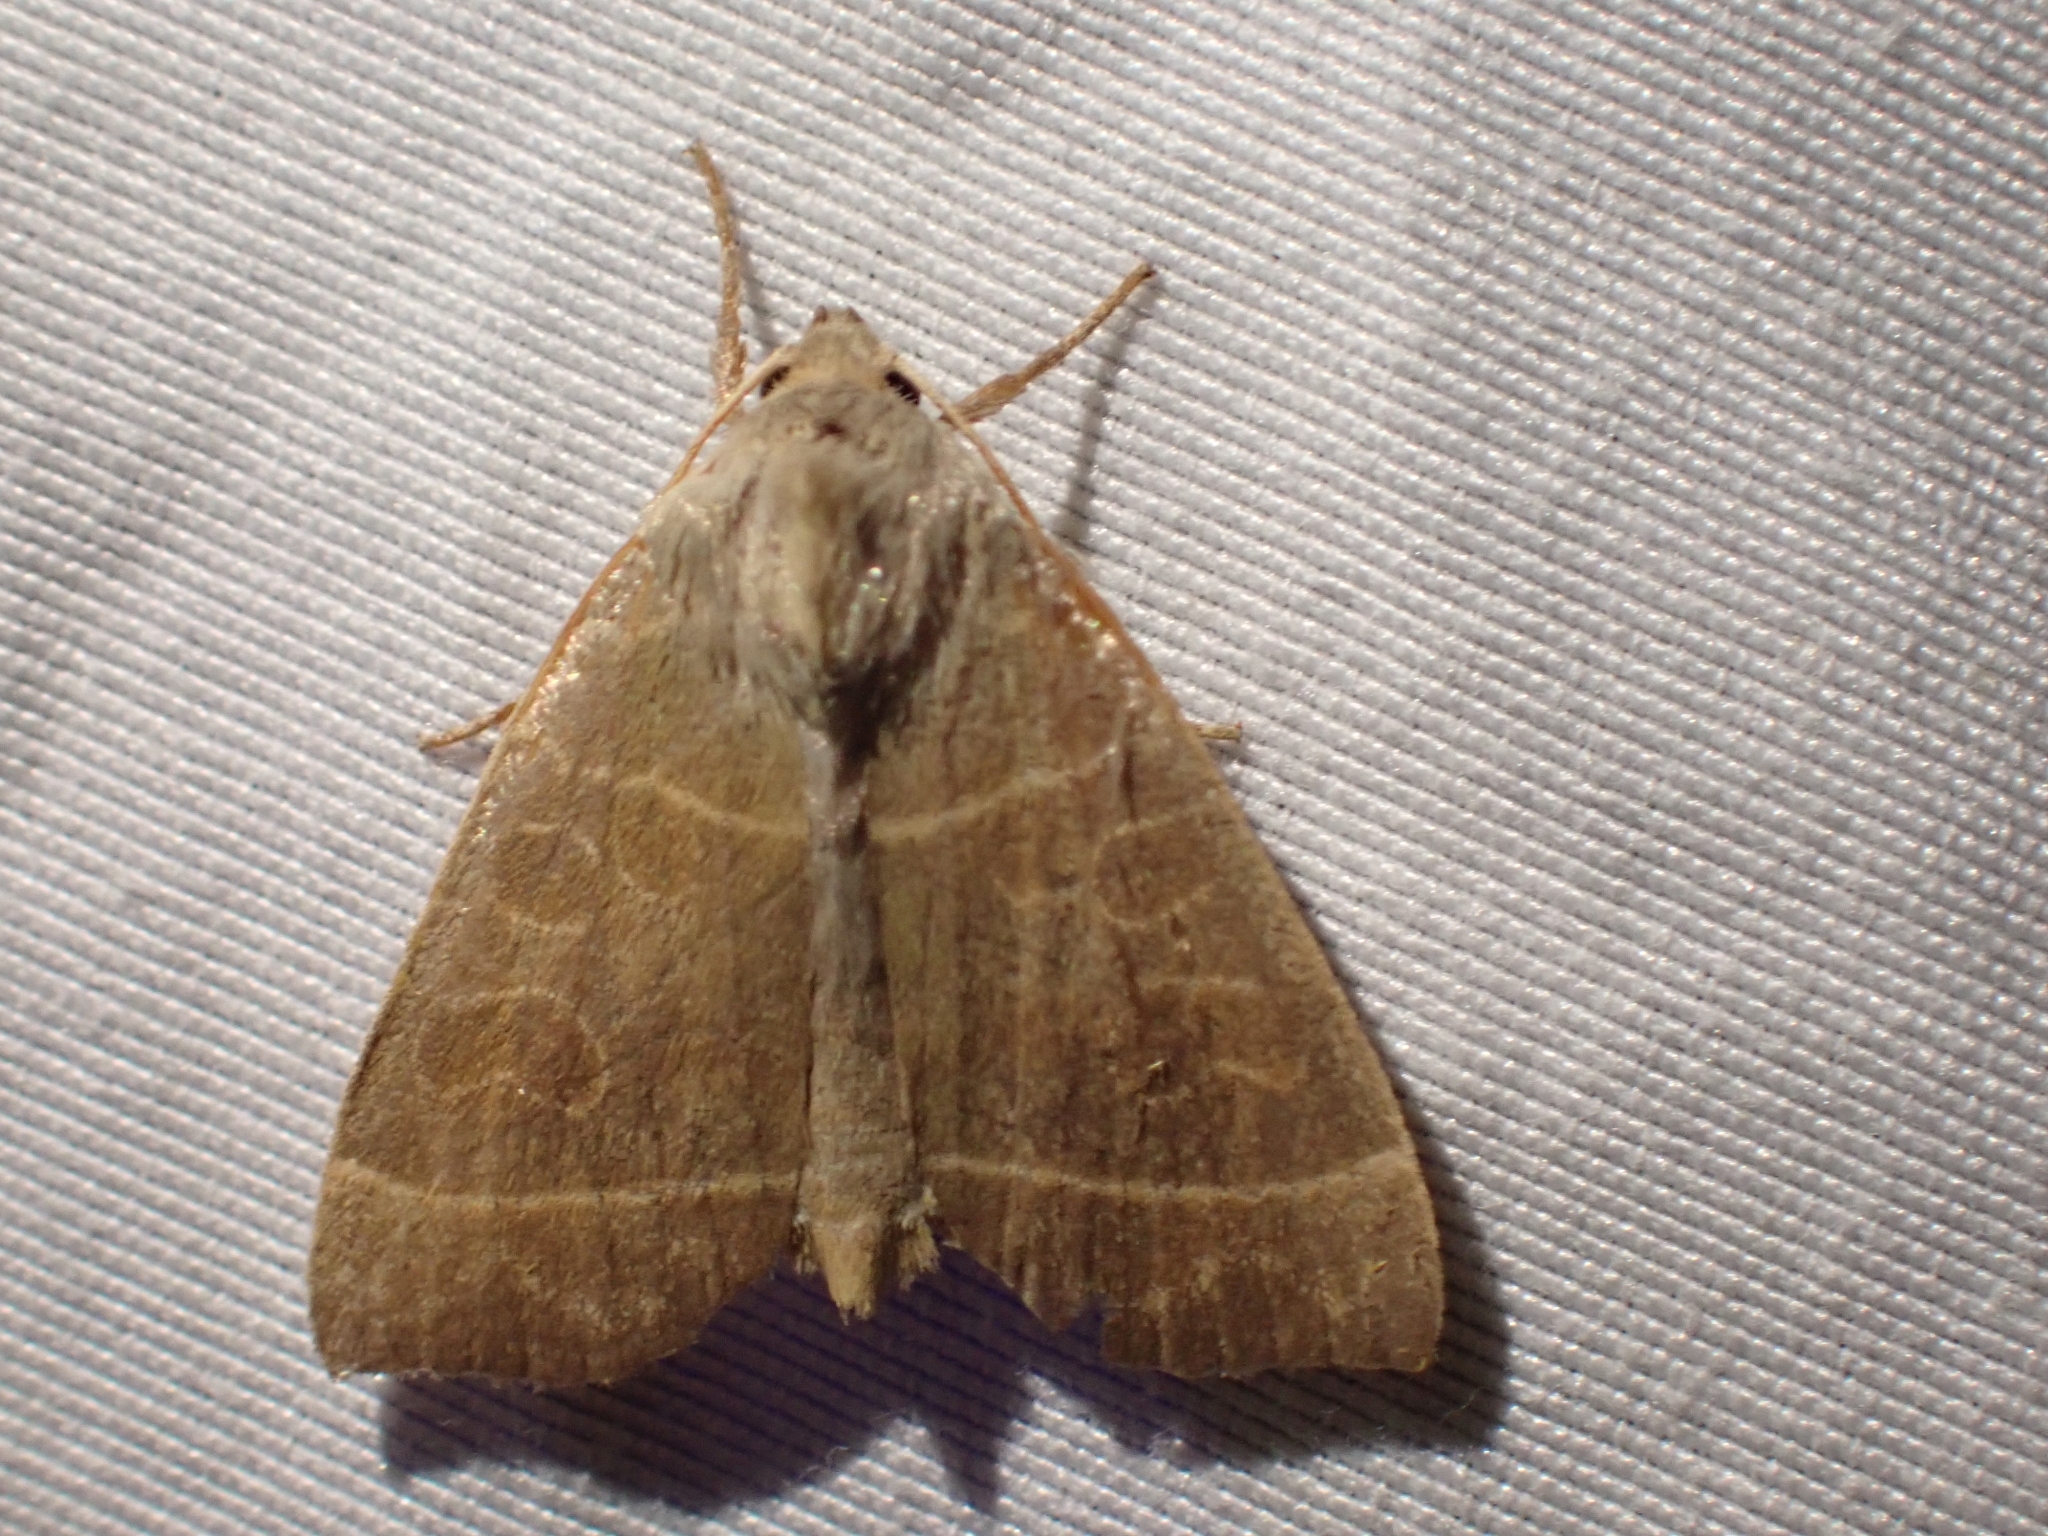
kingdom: Animalia
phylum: Arthropoda
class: Insecta
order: Lepidoptera
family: Noctuidae
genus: Ipimorpha
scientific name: Ipimorpha pleonectusa
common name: Even-lined sallow
